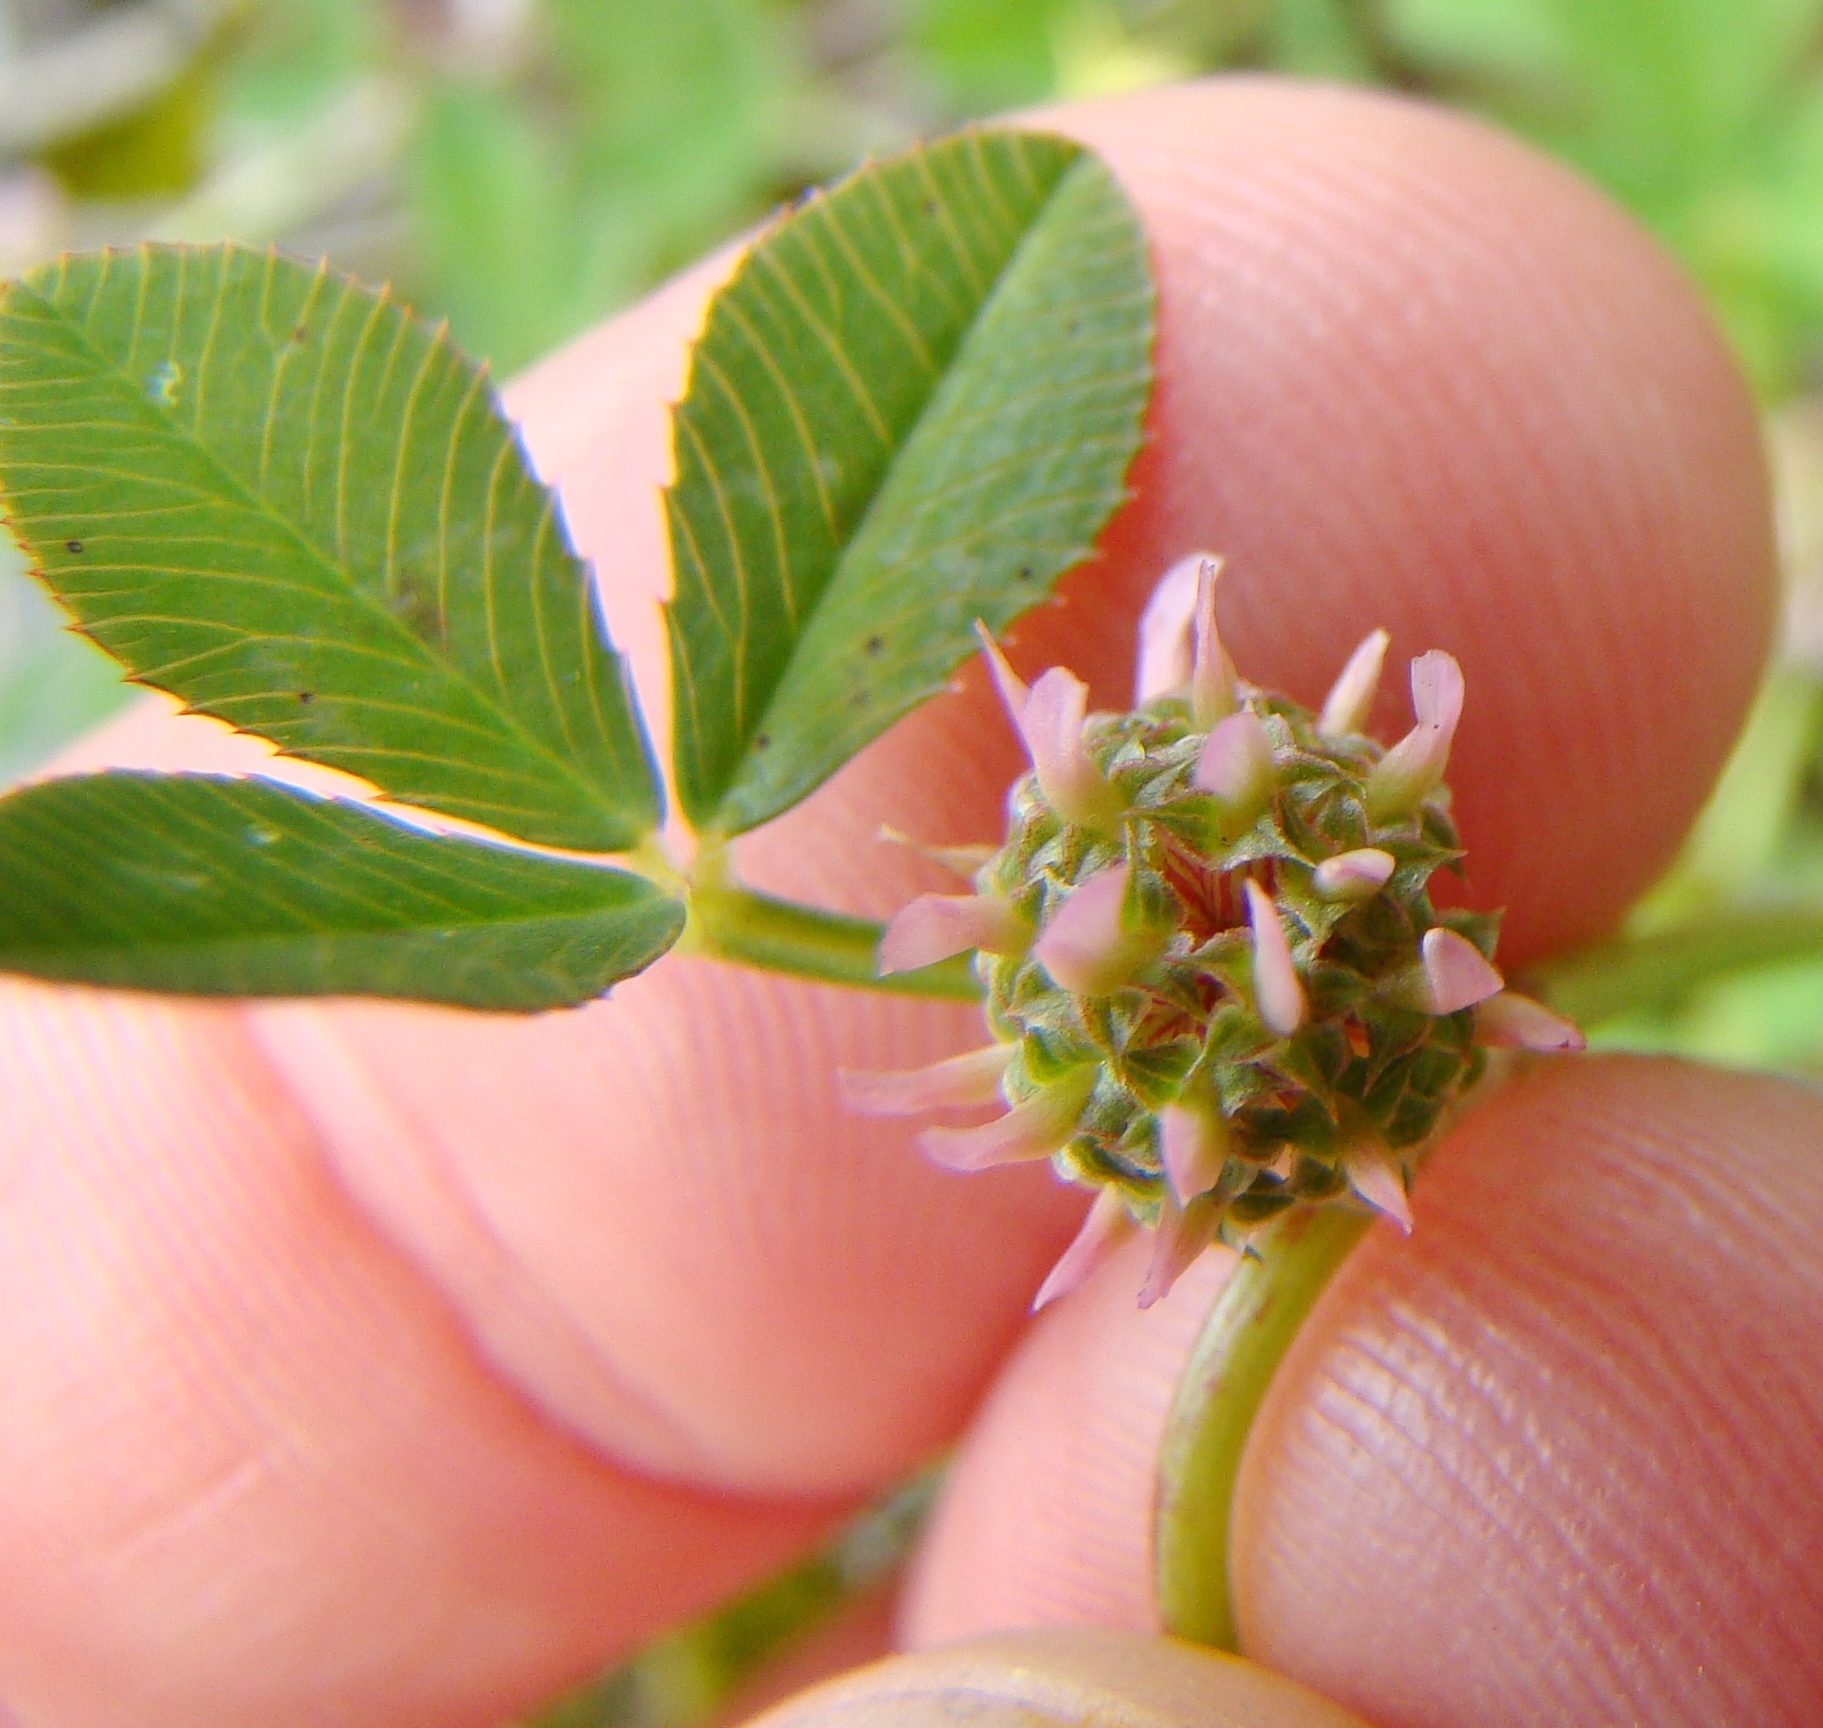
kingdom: Plantae
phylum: Tracheophyta
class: Magnoliopsida
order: Fabales
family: Fabaceae
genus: Trifolium
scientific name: Trifolium glomeratum
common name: Clustered clover
